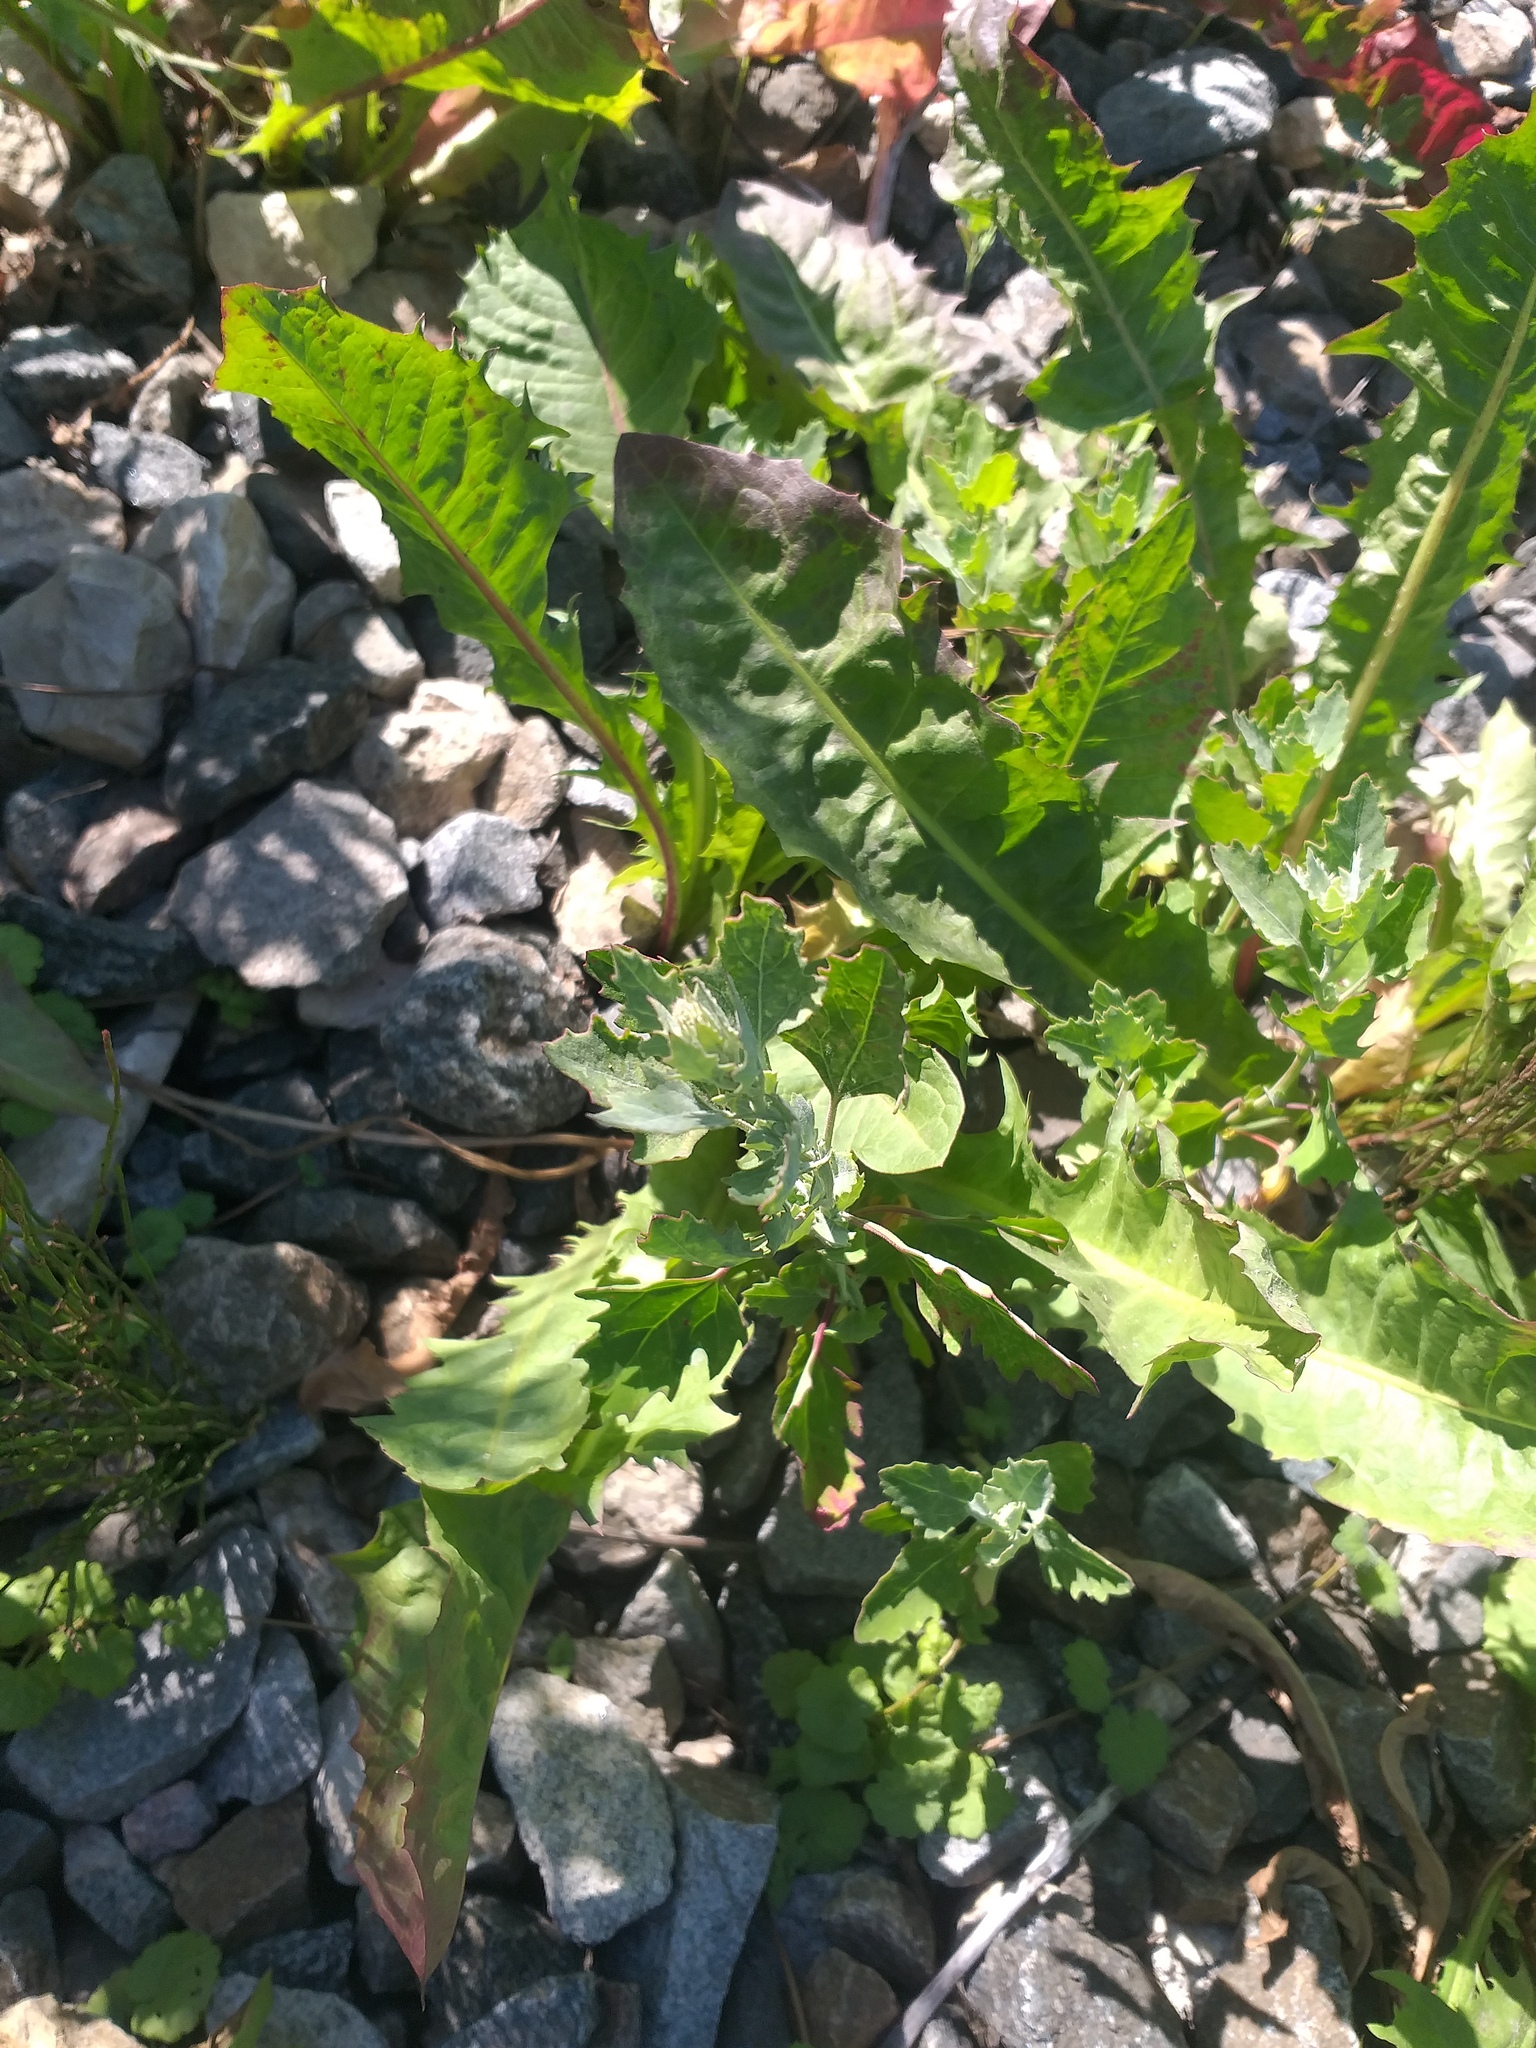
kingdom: Plantae
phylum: Tracheophyta
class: Magnoliopsida
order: Caryophyllales
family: Amaranthaceae
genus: Chenopodium
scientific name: Chenopodium album
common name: Fat-hen
